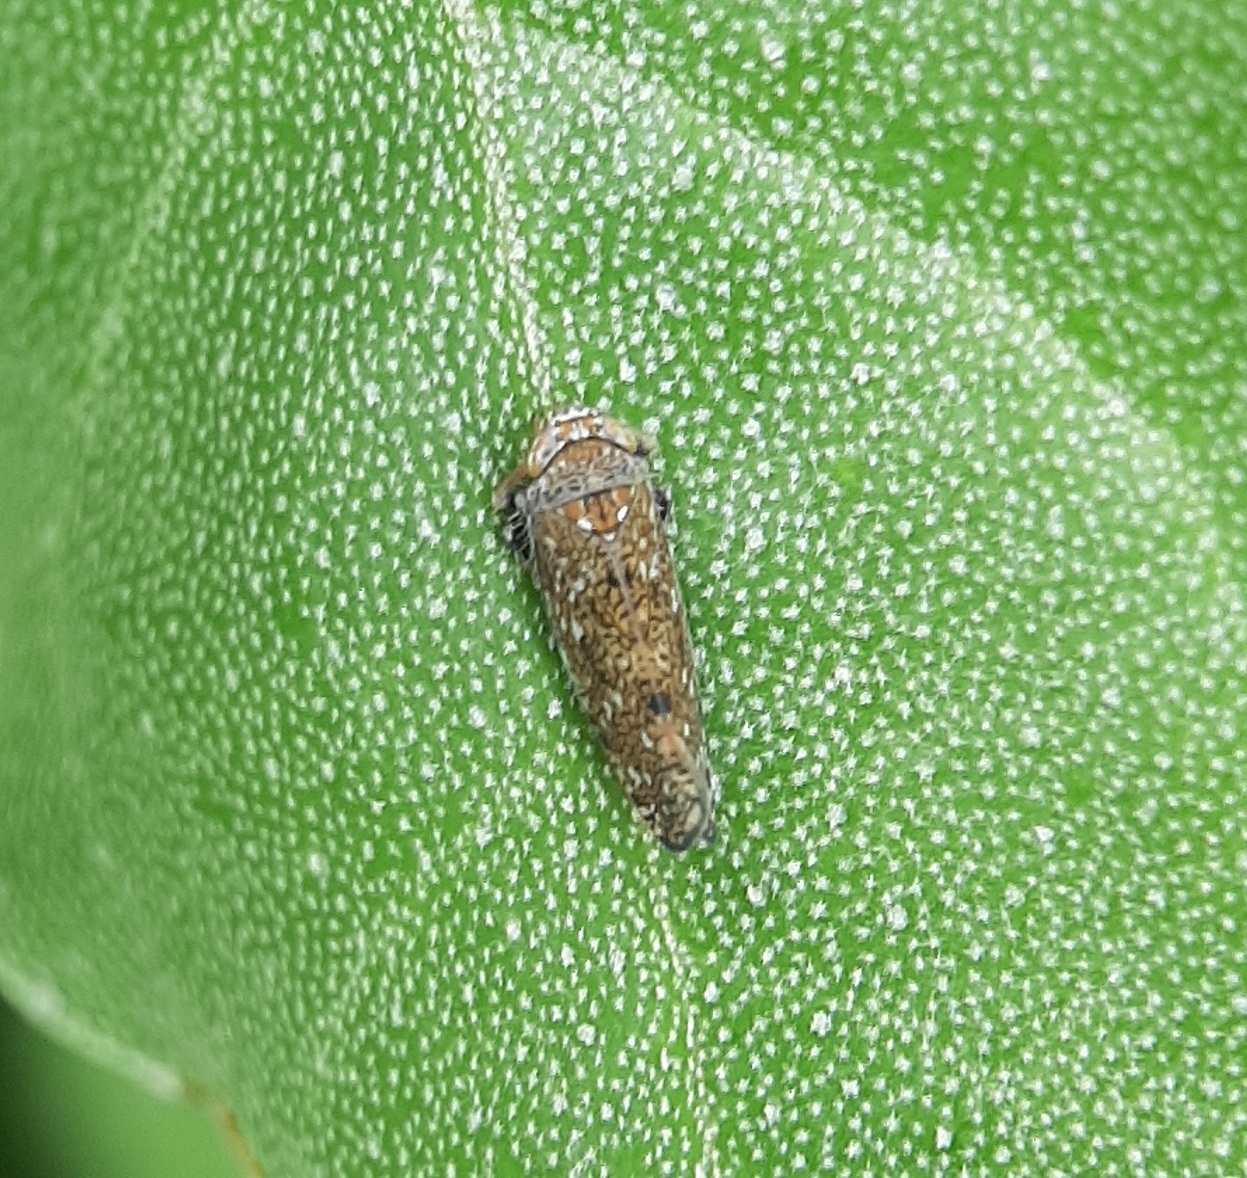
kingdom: Animalia
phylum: Arthropoda
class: Insecta
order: Hemiptera
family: Cicadellidae
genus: Orientus
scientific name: Orientus ishidae
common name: Japanese leafhopper
